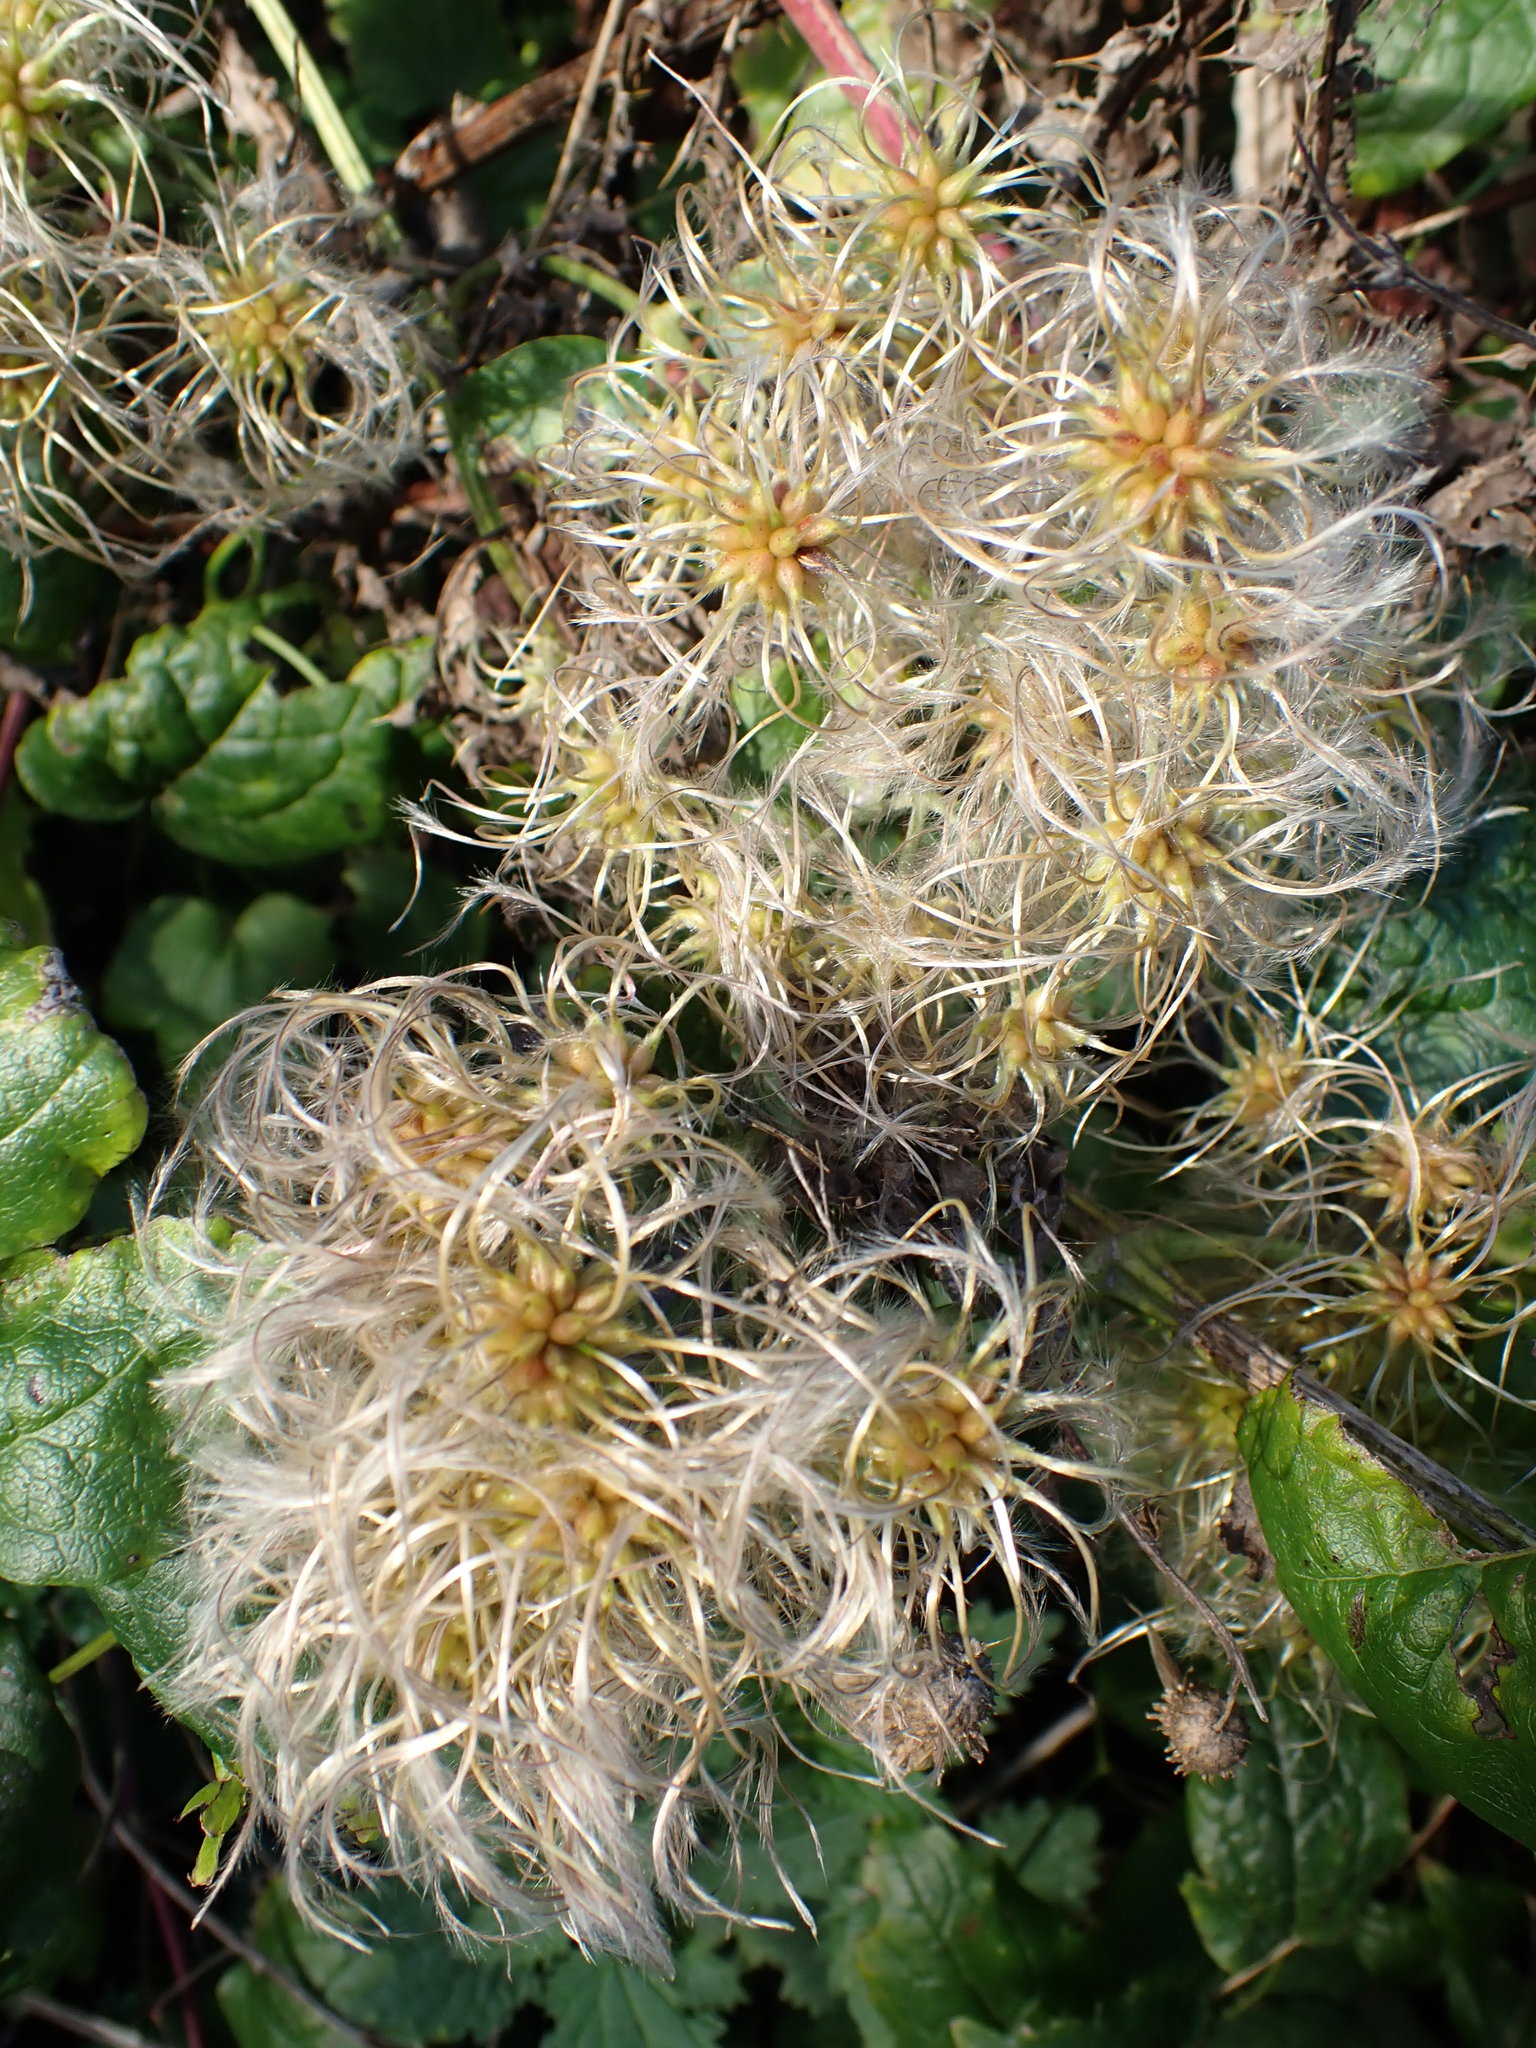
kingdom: Plantae
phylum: Tracheophyta
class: Magnoliopsida
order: Ranunculales
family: Ranunculaceae
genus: Clematis
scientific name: Clematis vitalba
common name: Evergreen clematis
